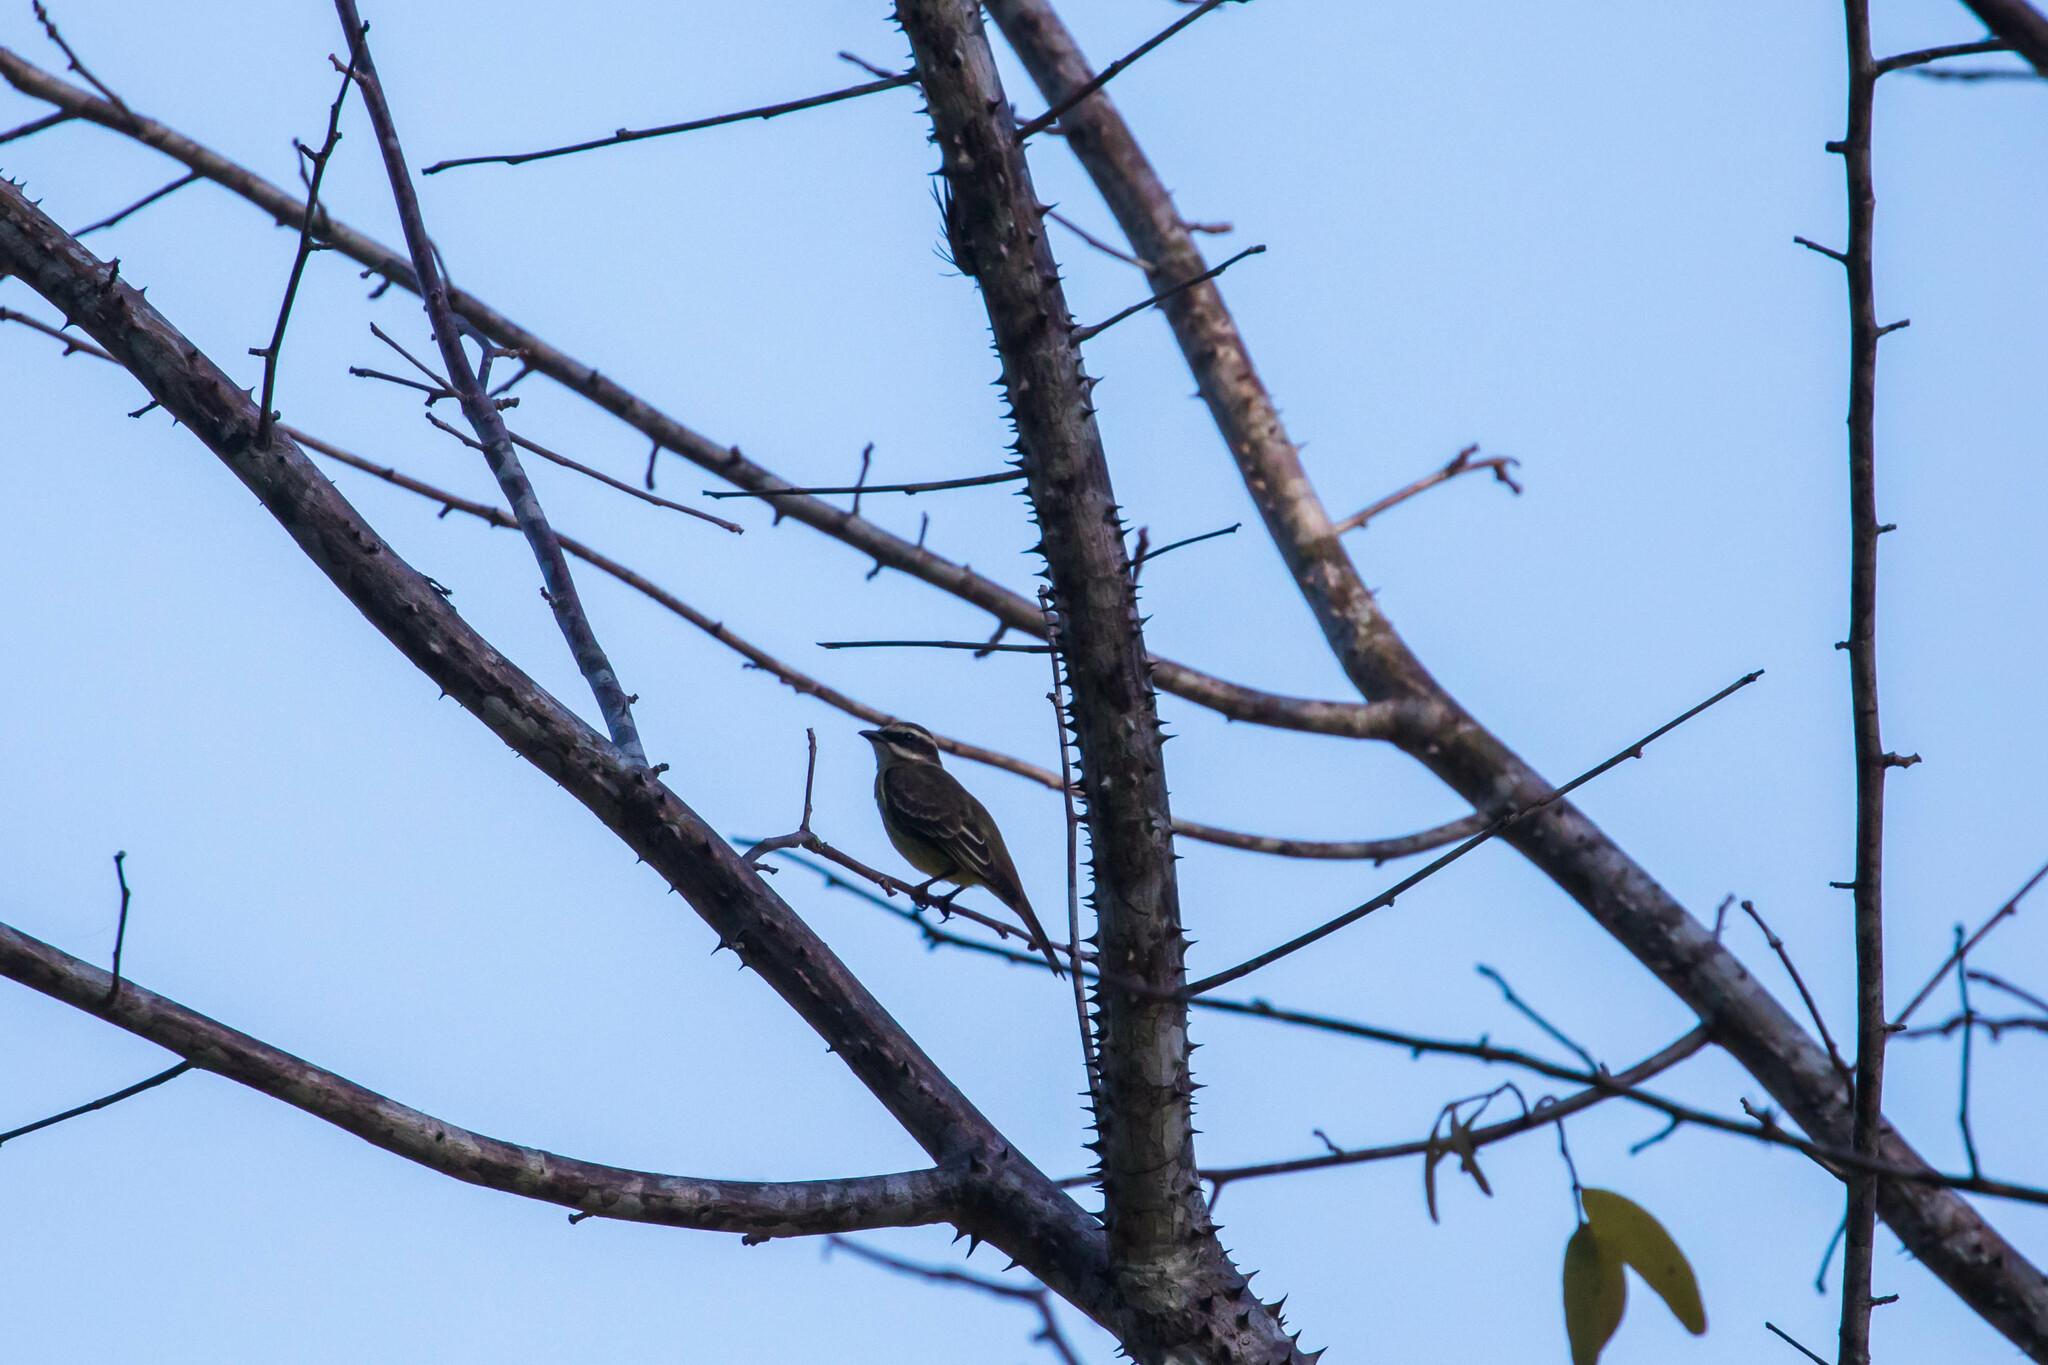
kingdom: Animalia
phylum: Chordata
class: Aves
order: Passeriformes
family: Tyrannidae
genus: Legatus
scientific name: Legatus leucophaius
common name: Piratic flycatcher
